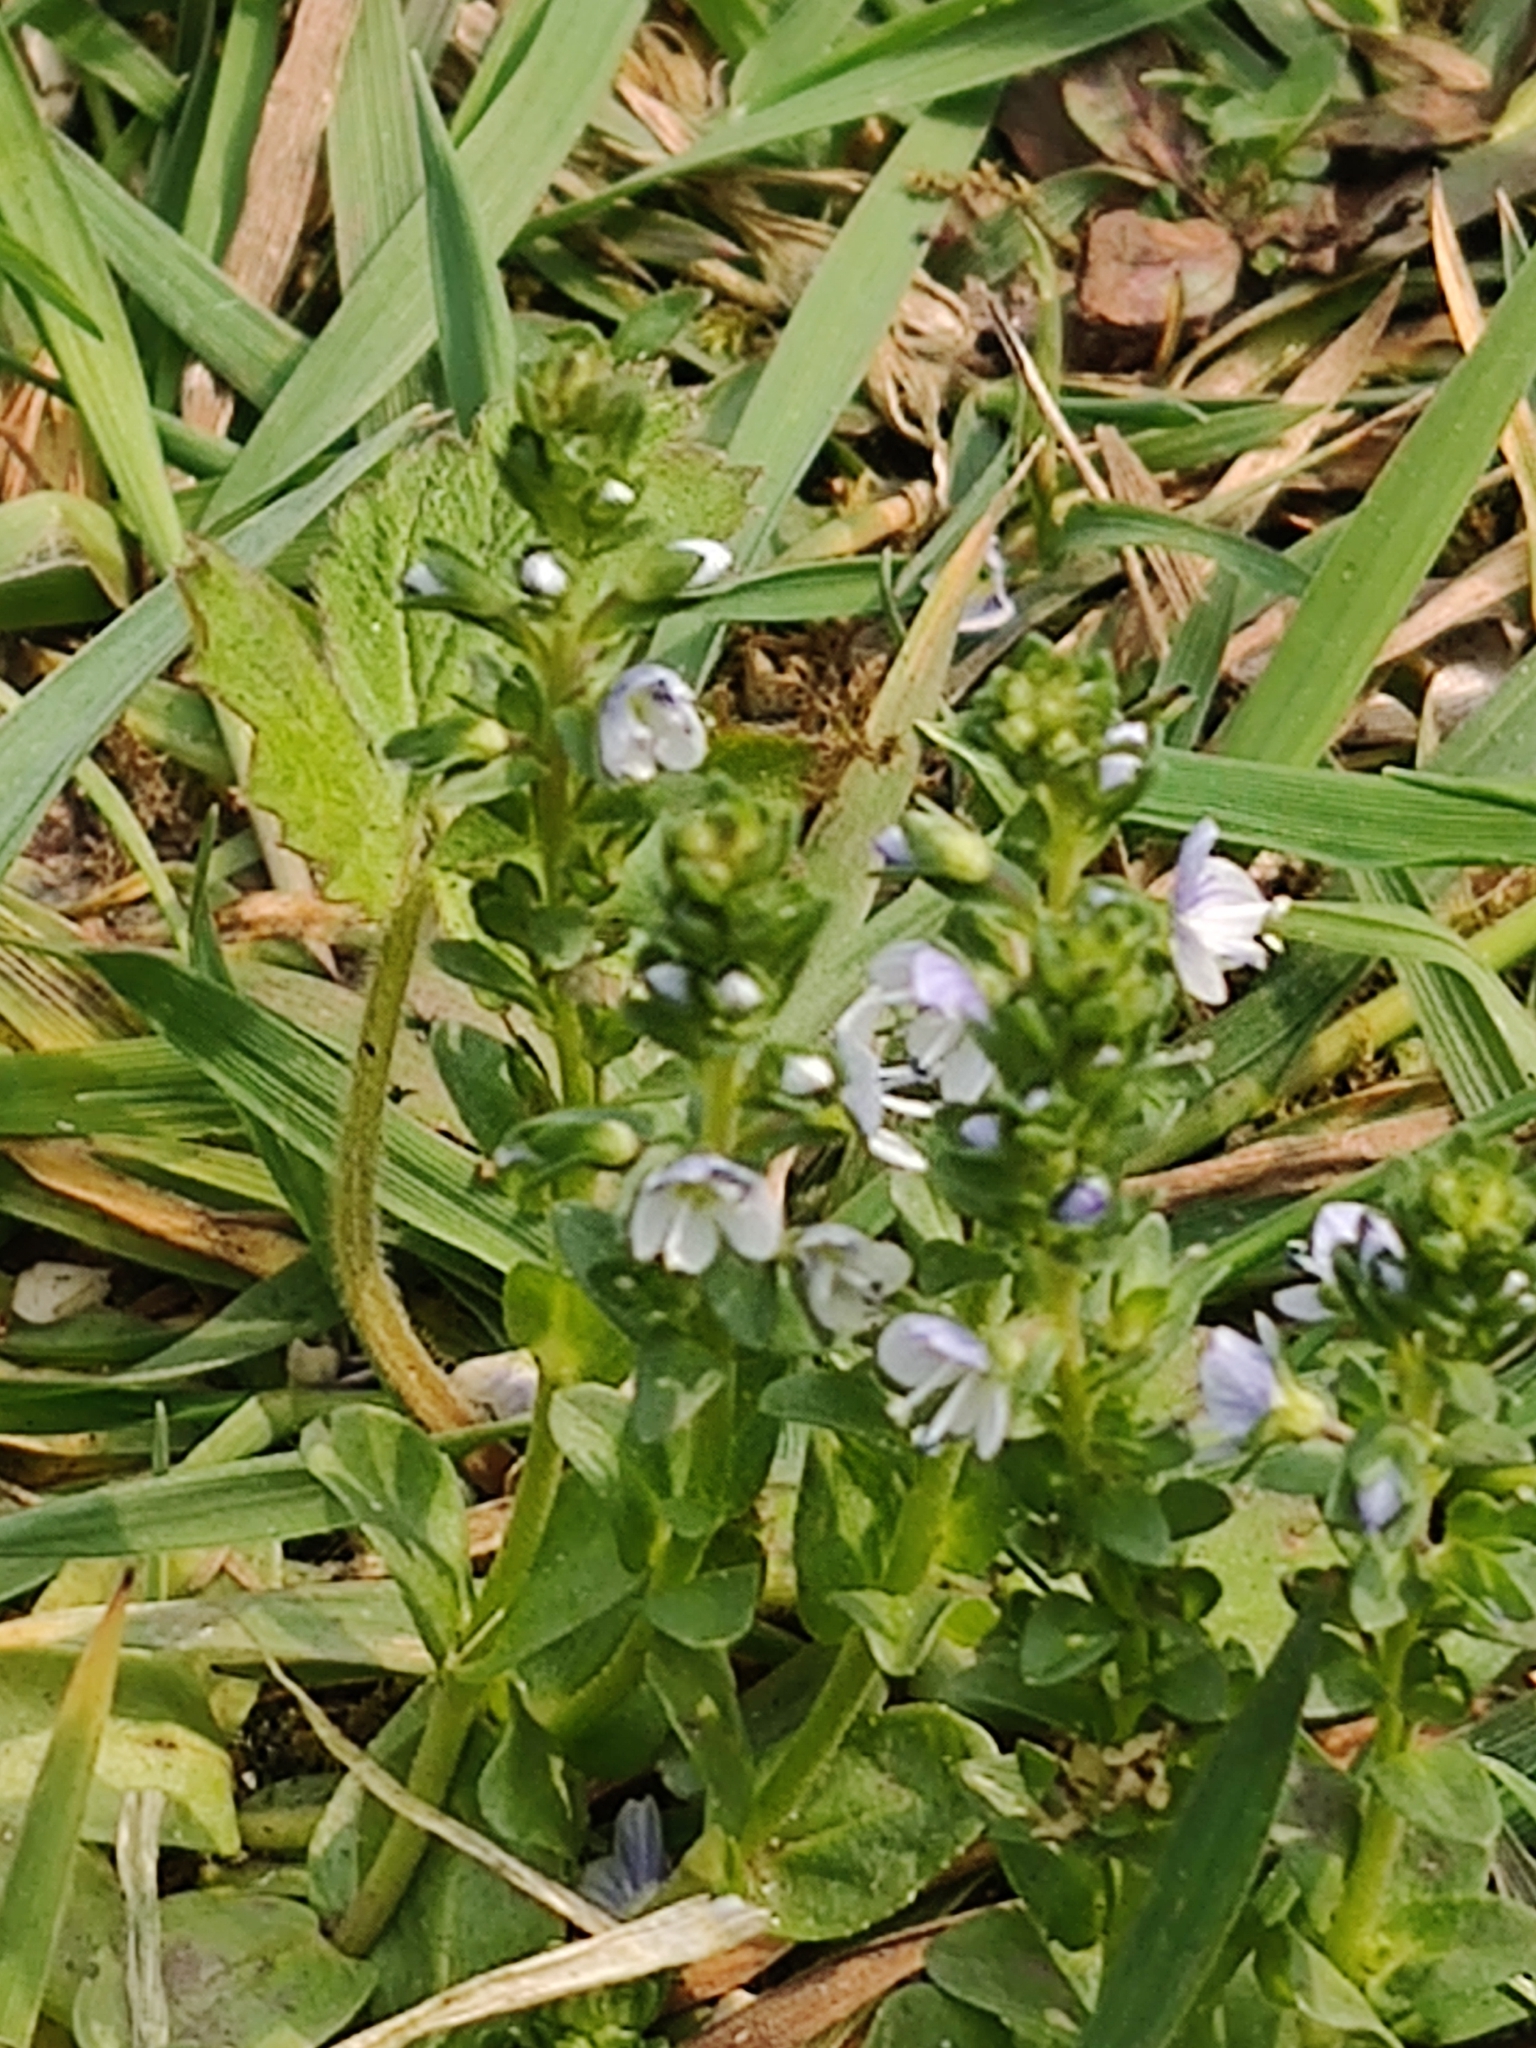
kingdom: Plantae
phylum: Tracheophyta
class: Magnoliopsida
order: Lamiales
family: Plantaginaceae
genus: Veronica
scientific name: Veronica serpyllifolia
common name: Thyme-leaved speedwell
